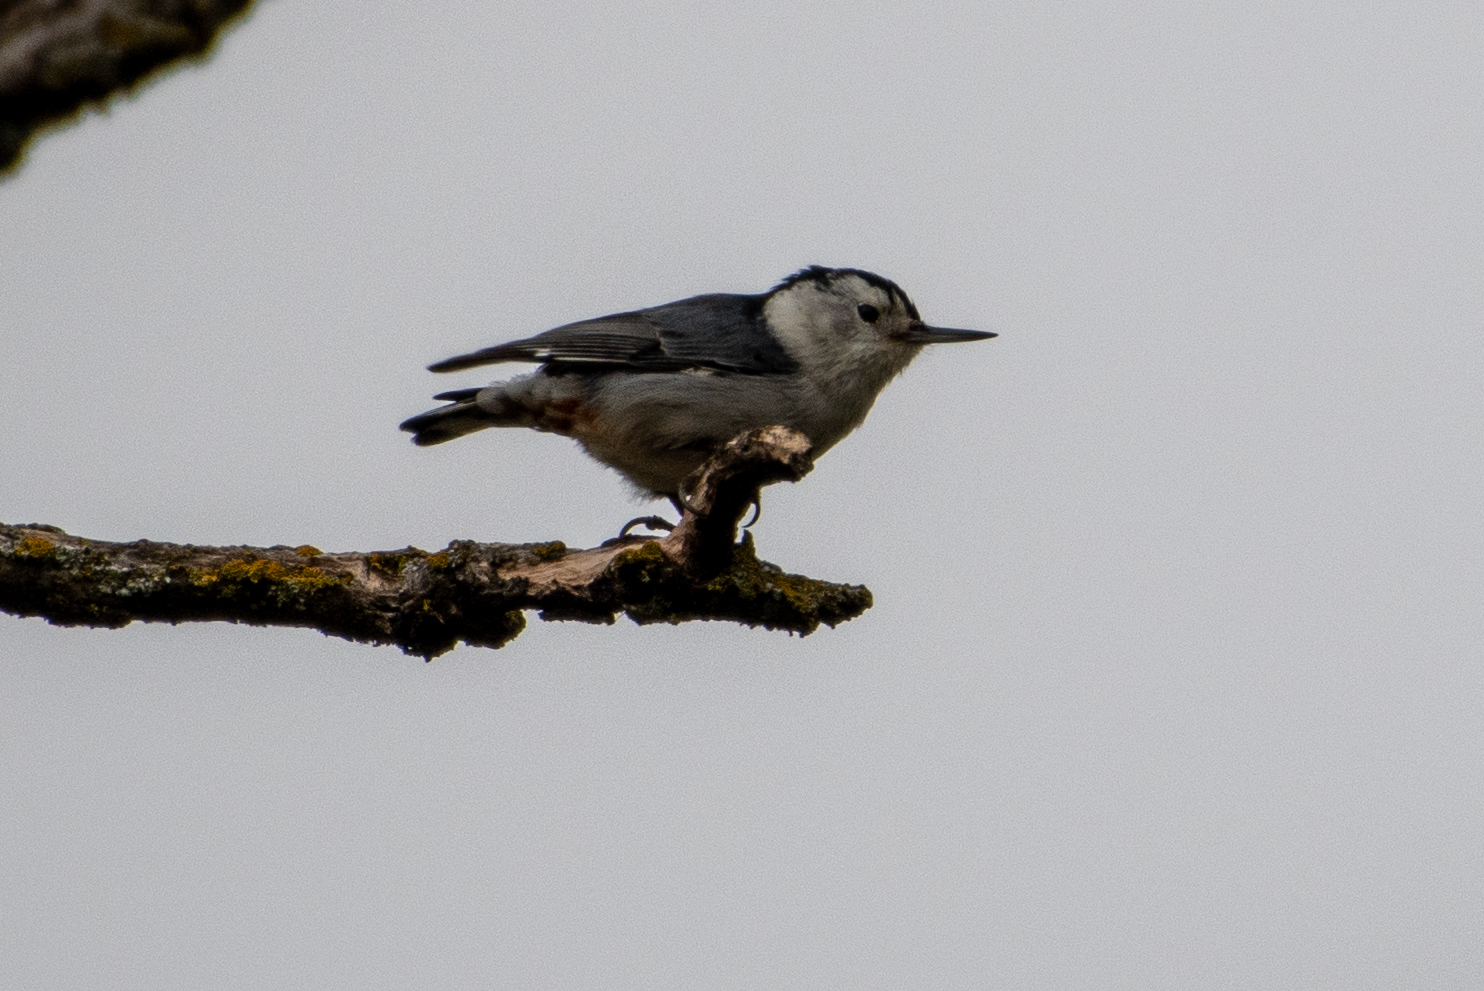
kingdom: Animalia
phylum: Chordata
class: Aves
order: Passeriformes
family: Sittidae
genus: Sitta
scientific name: Sitta carolinensis
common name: White-breasted nuthatch
